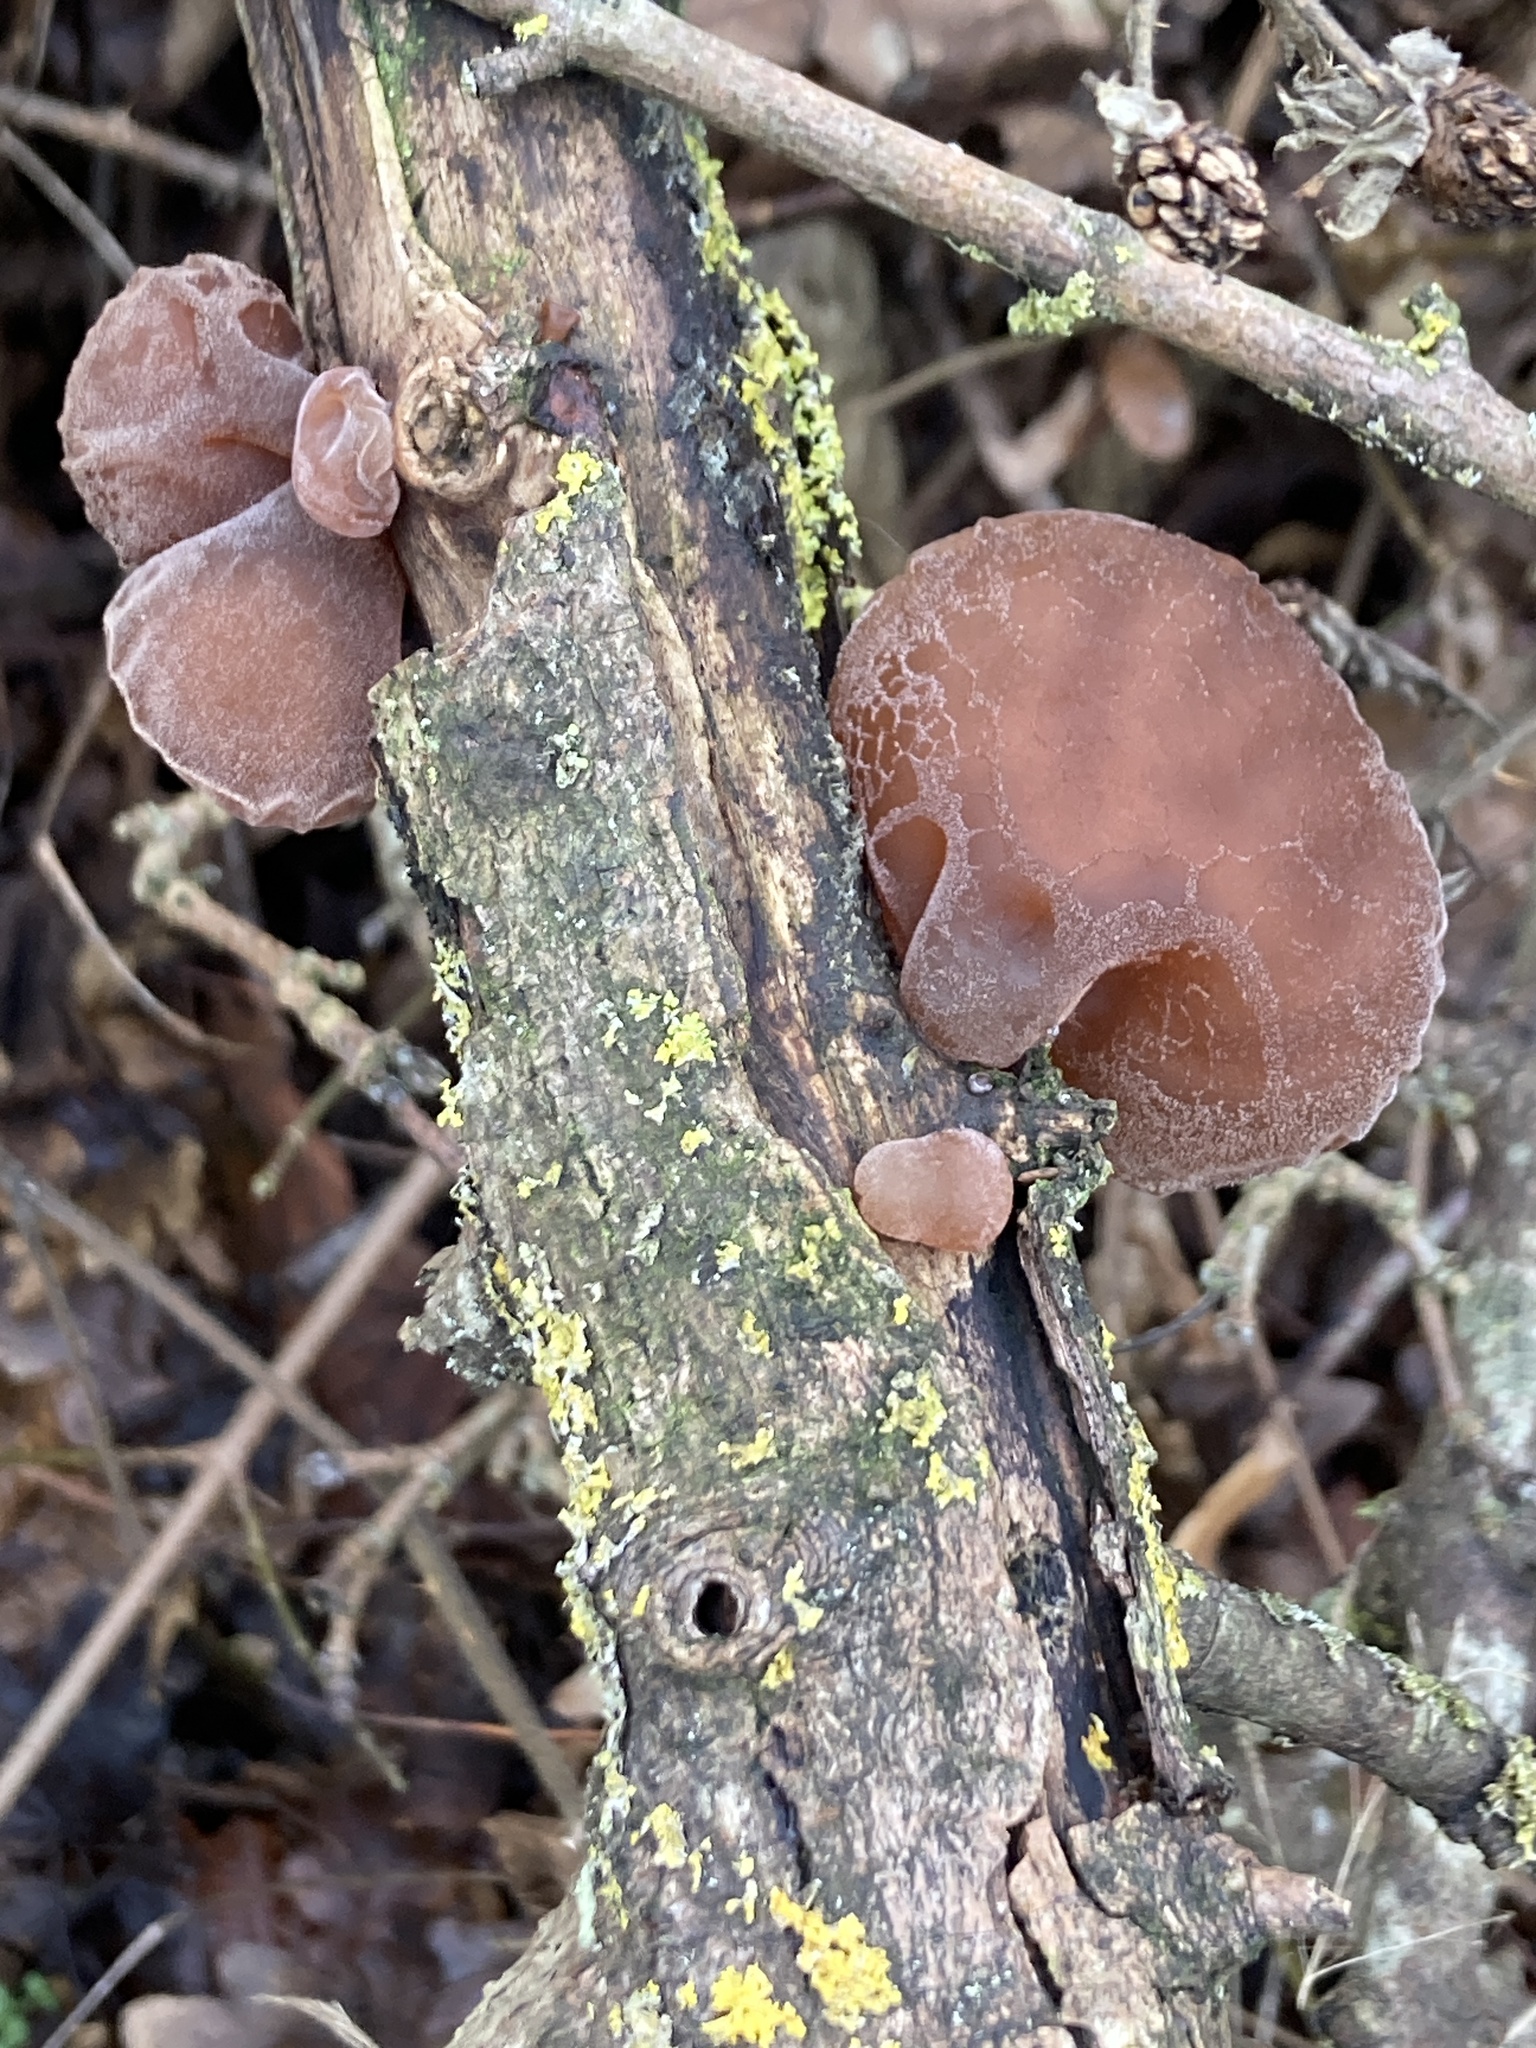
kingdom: Fungi
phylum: Basidiomycota
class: Agaricomycetes
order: Auriculariales
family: Auriculariaceae
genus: Auricularia
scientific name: Auricularia auricula-judae
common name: Jelly ear
